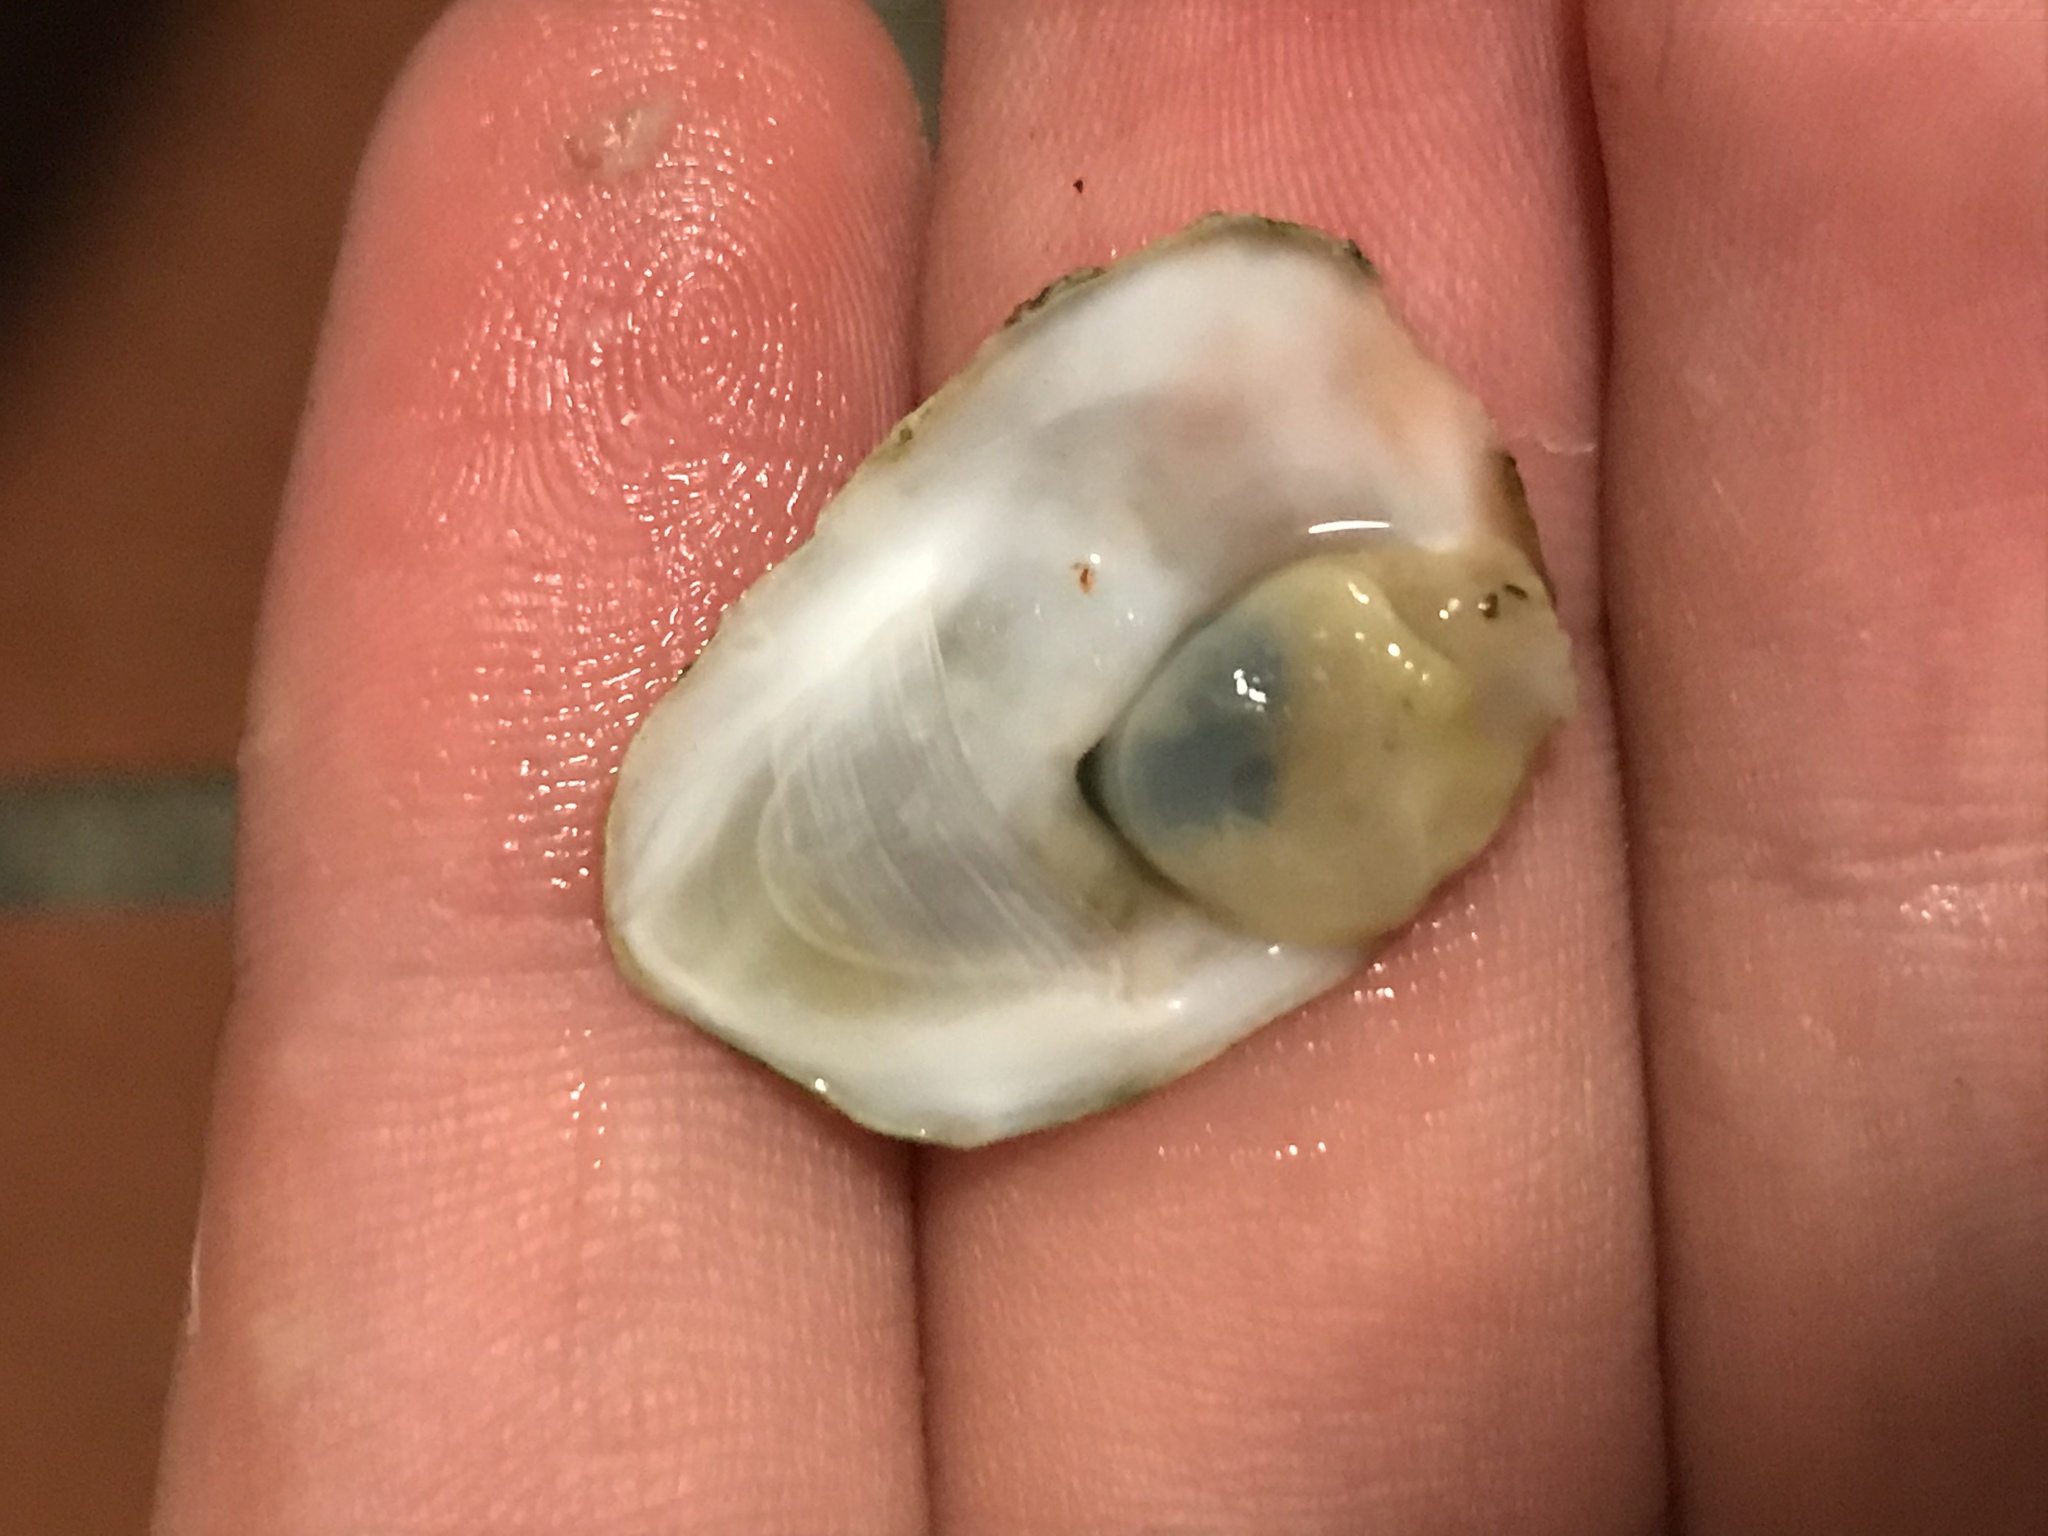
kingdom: Animalia
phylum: Mollusca
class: Gastropoda
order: Littorinimorpha
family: Calyptraeidae
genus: Crepidula
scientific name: Crepidula perforans
